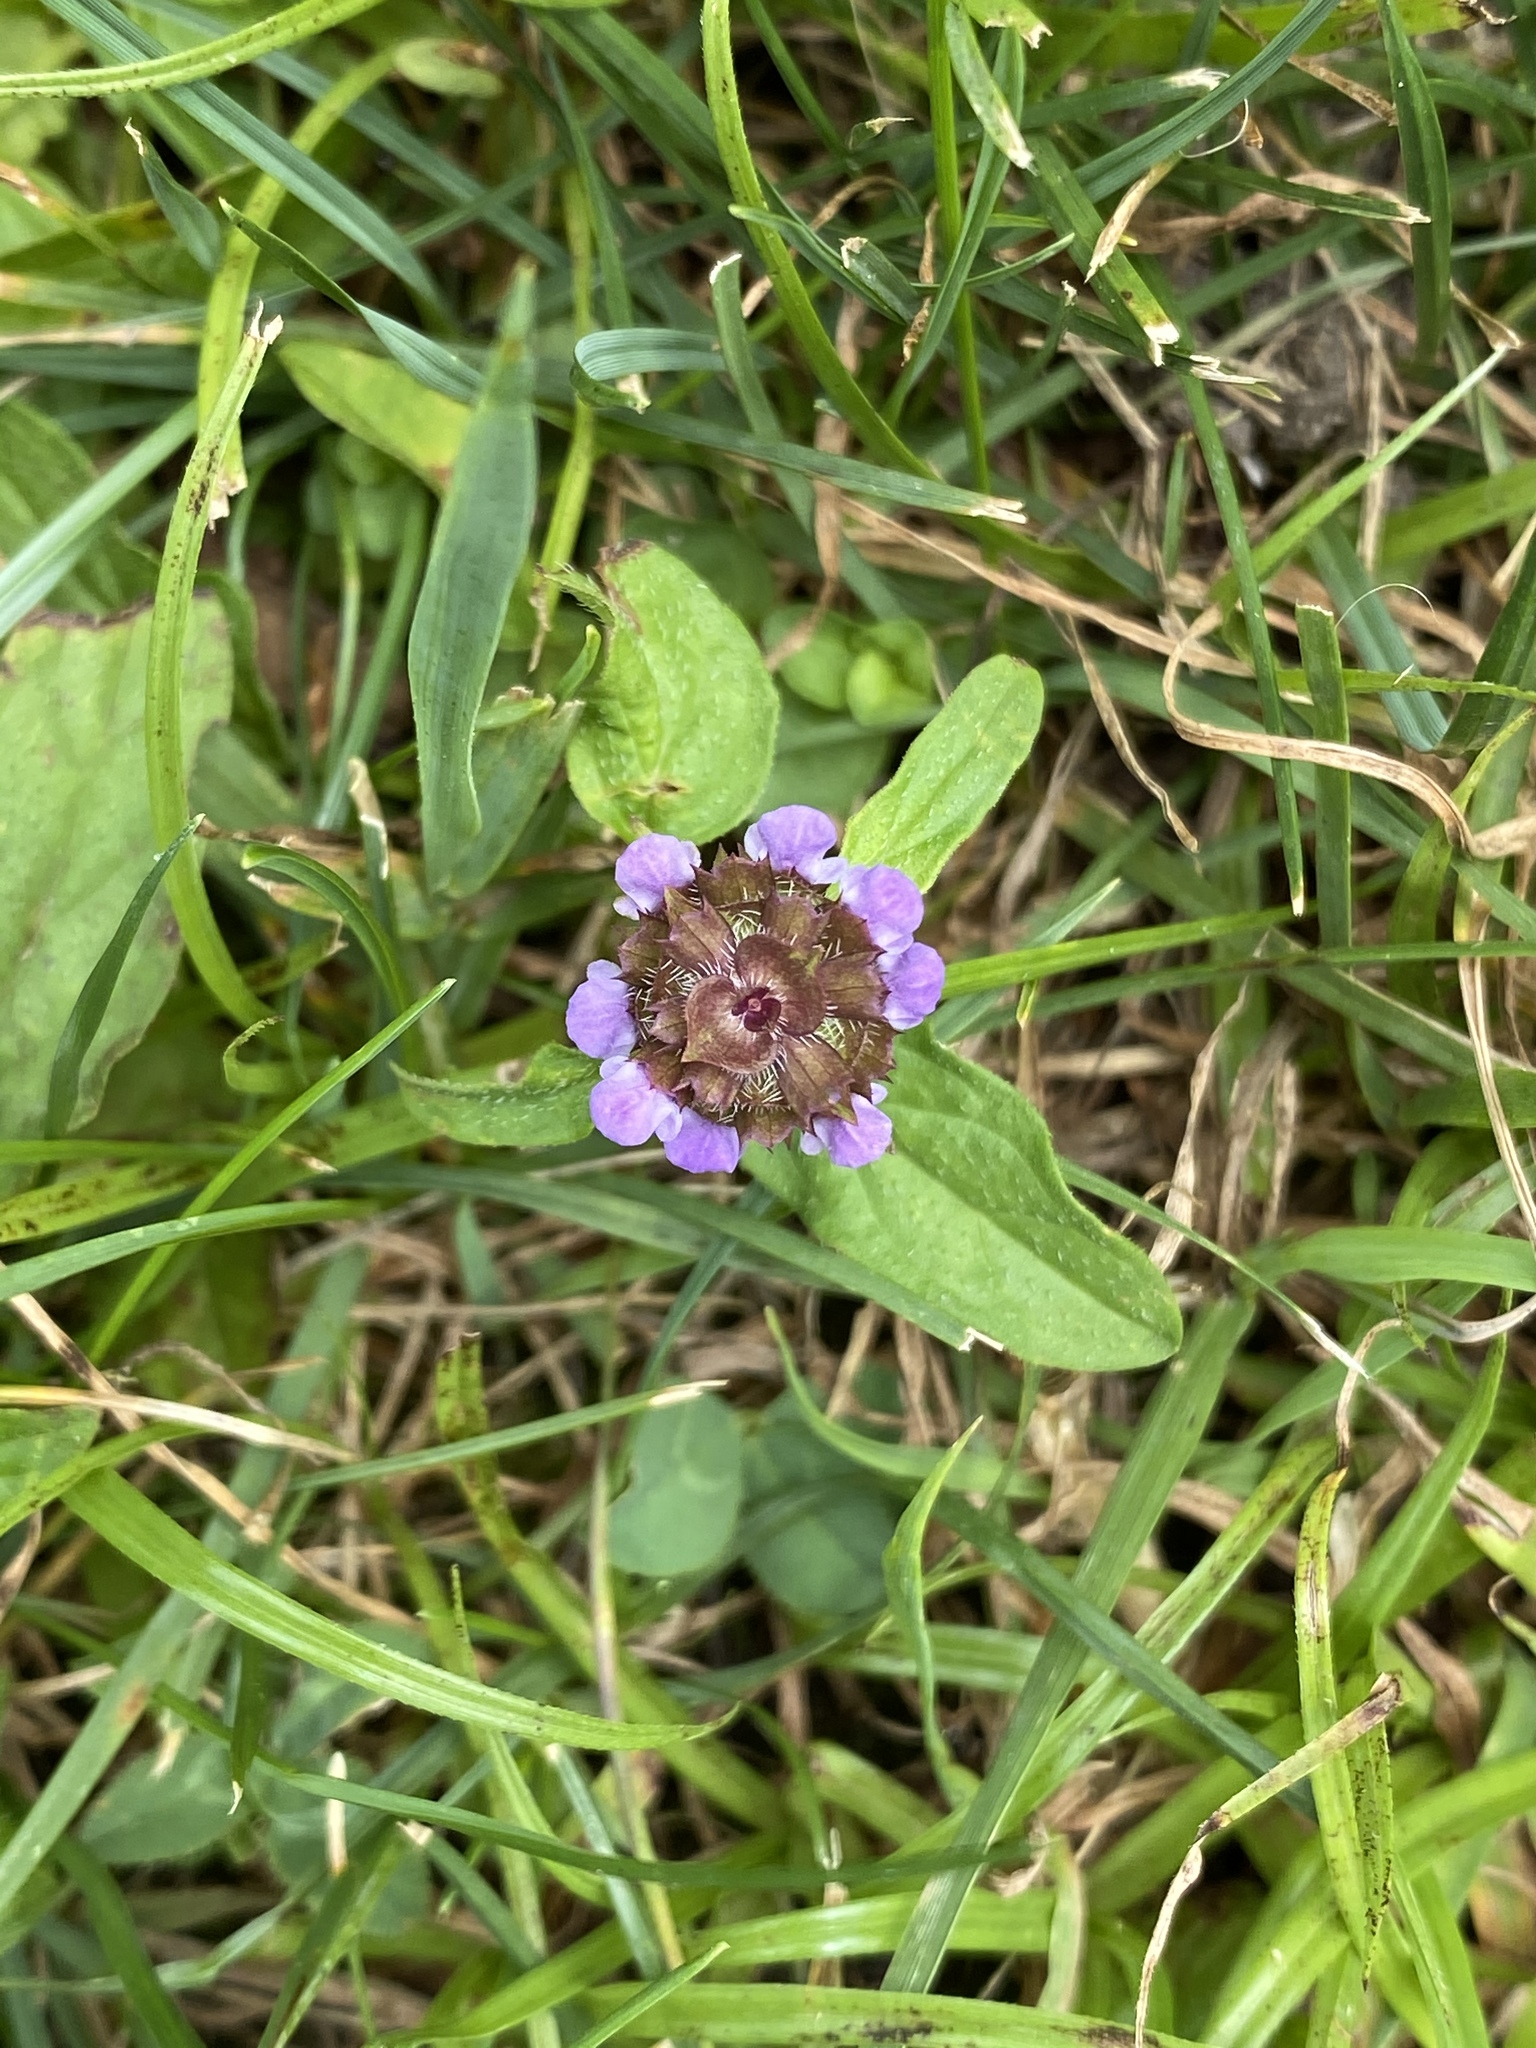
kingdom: Plantae
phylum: Tracheophyta
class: Magnoliopsida
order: Lamiales
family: Lamiaceae
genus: Prunella
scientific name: Prunella vulgaris
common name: Heal-all
